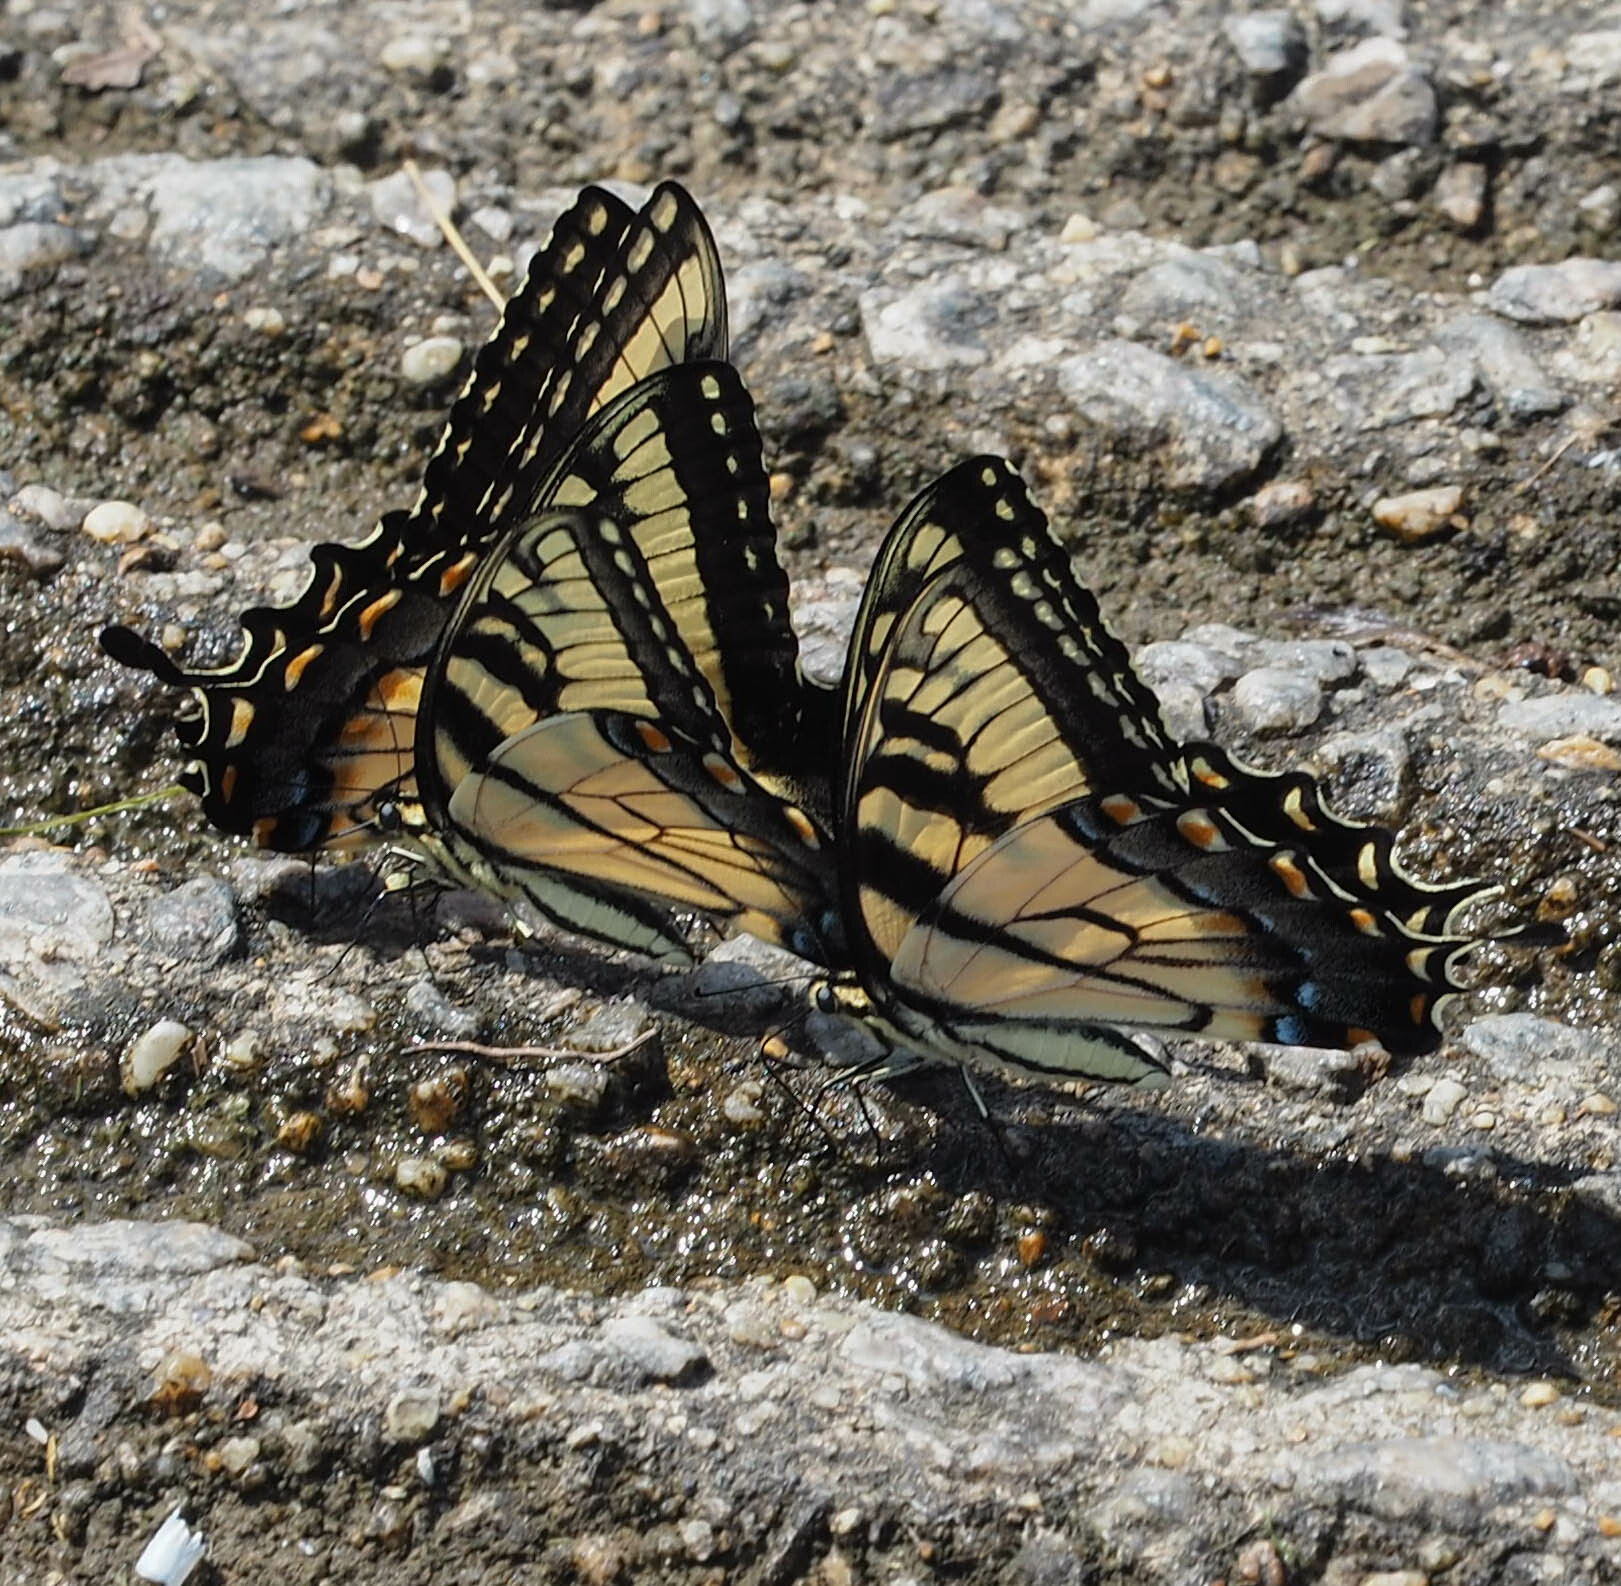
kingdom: Animalia
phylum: Arthropoda
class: Insecta
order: Lepidoptera
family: Papilionidae
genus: Papilio
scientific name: Papilio glaucus
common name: Tiger swallowtail
